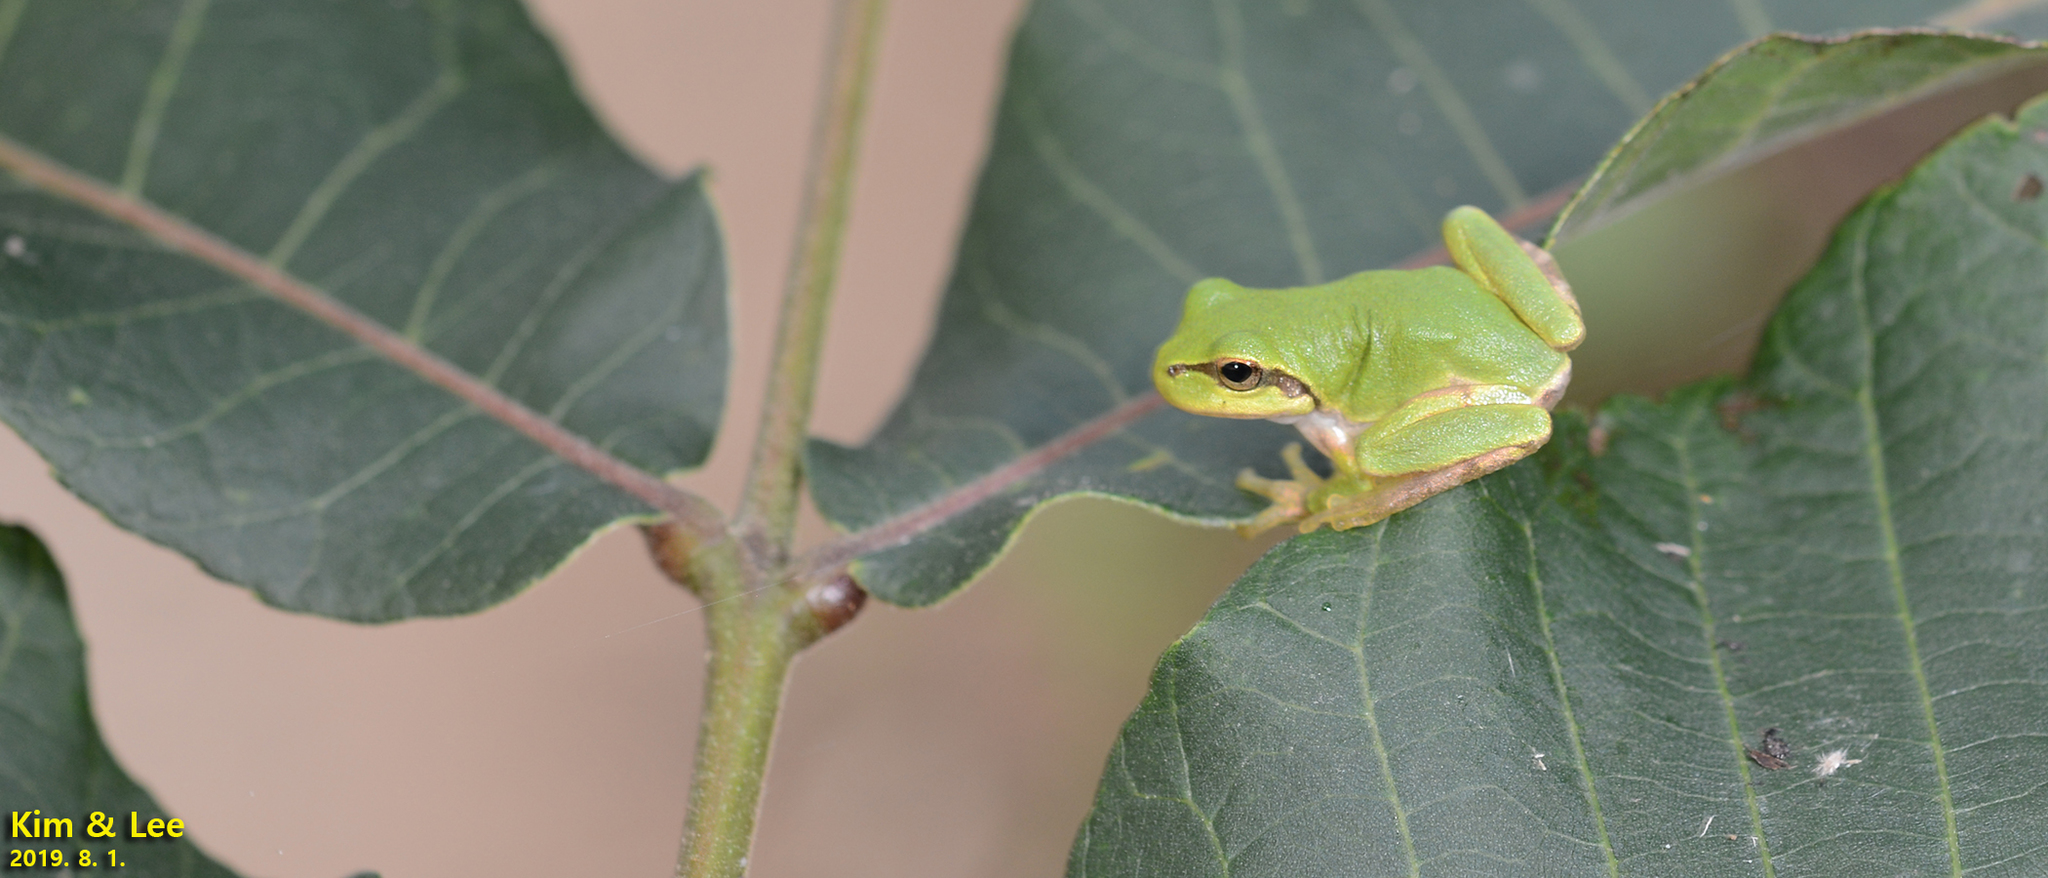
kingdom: Animalia
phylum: Chordata
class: Amphibia
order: Anura
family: Hylidae
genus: Dryophytes
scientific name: Dryophytes japonicus
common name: Japanese treefrog
